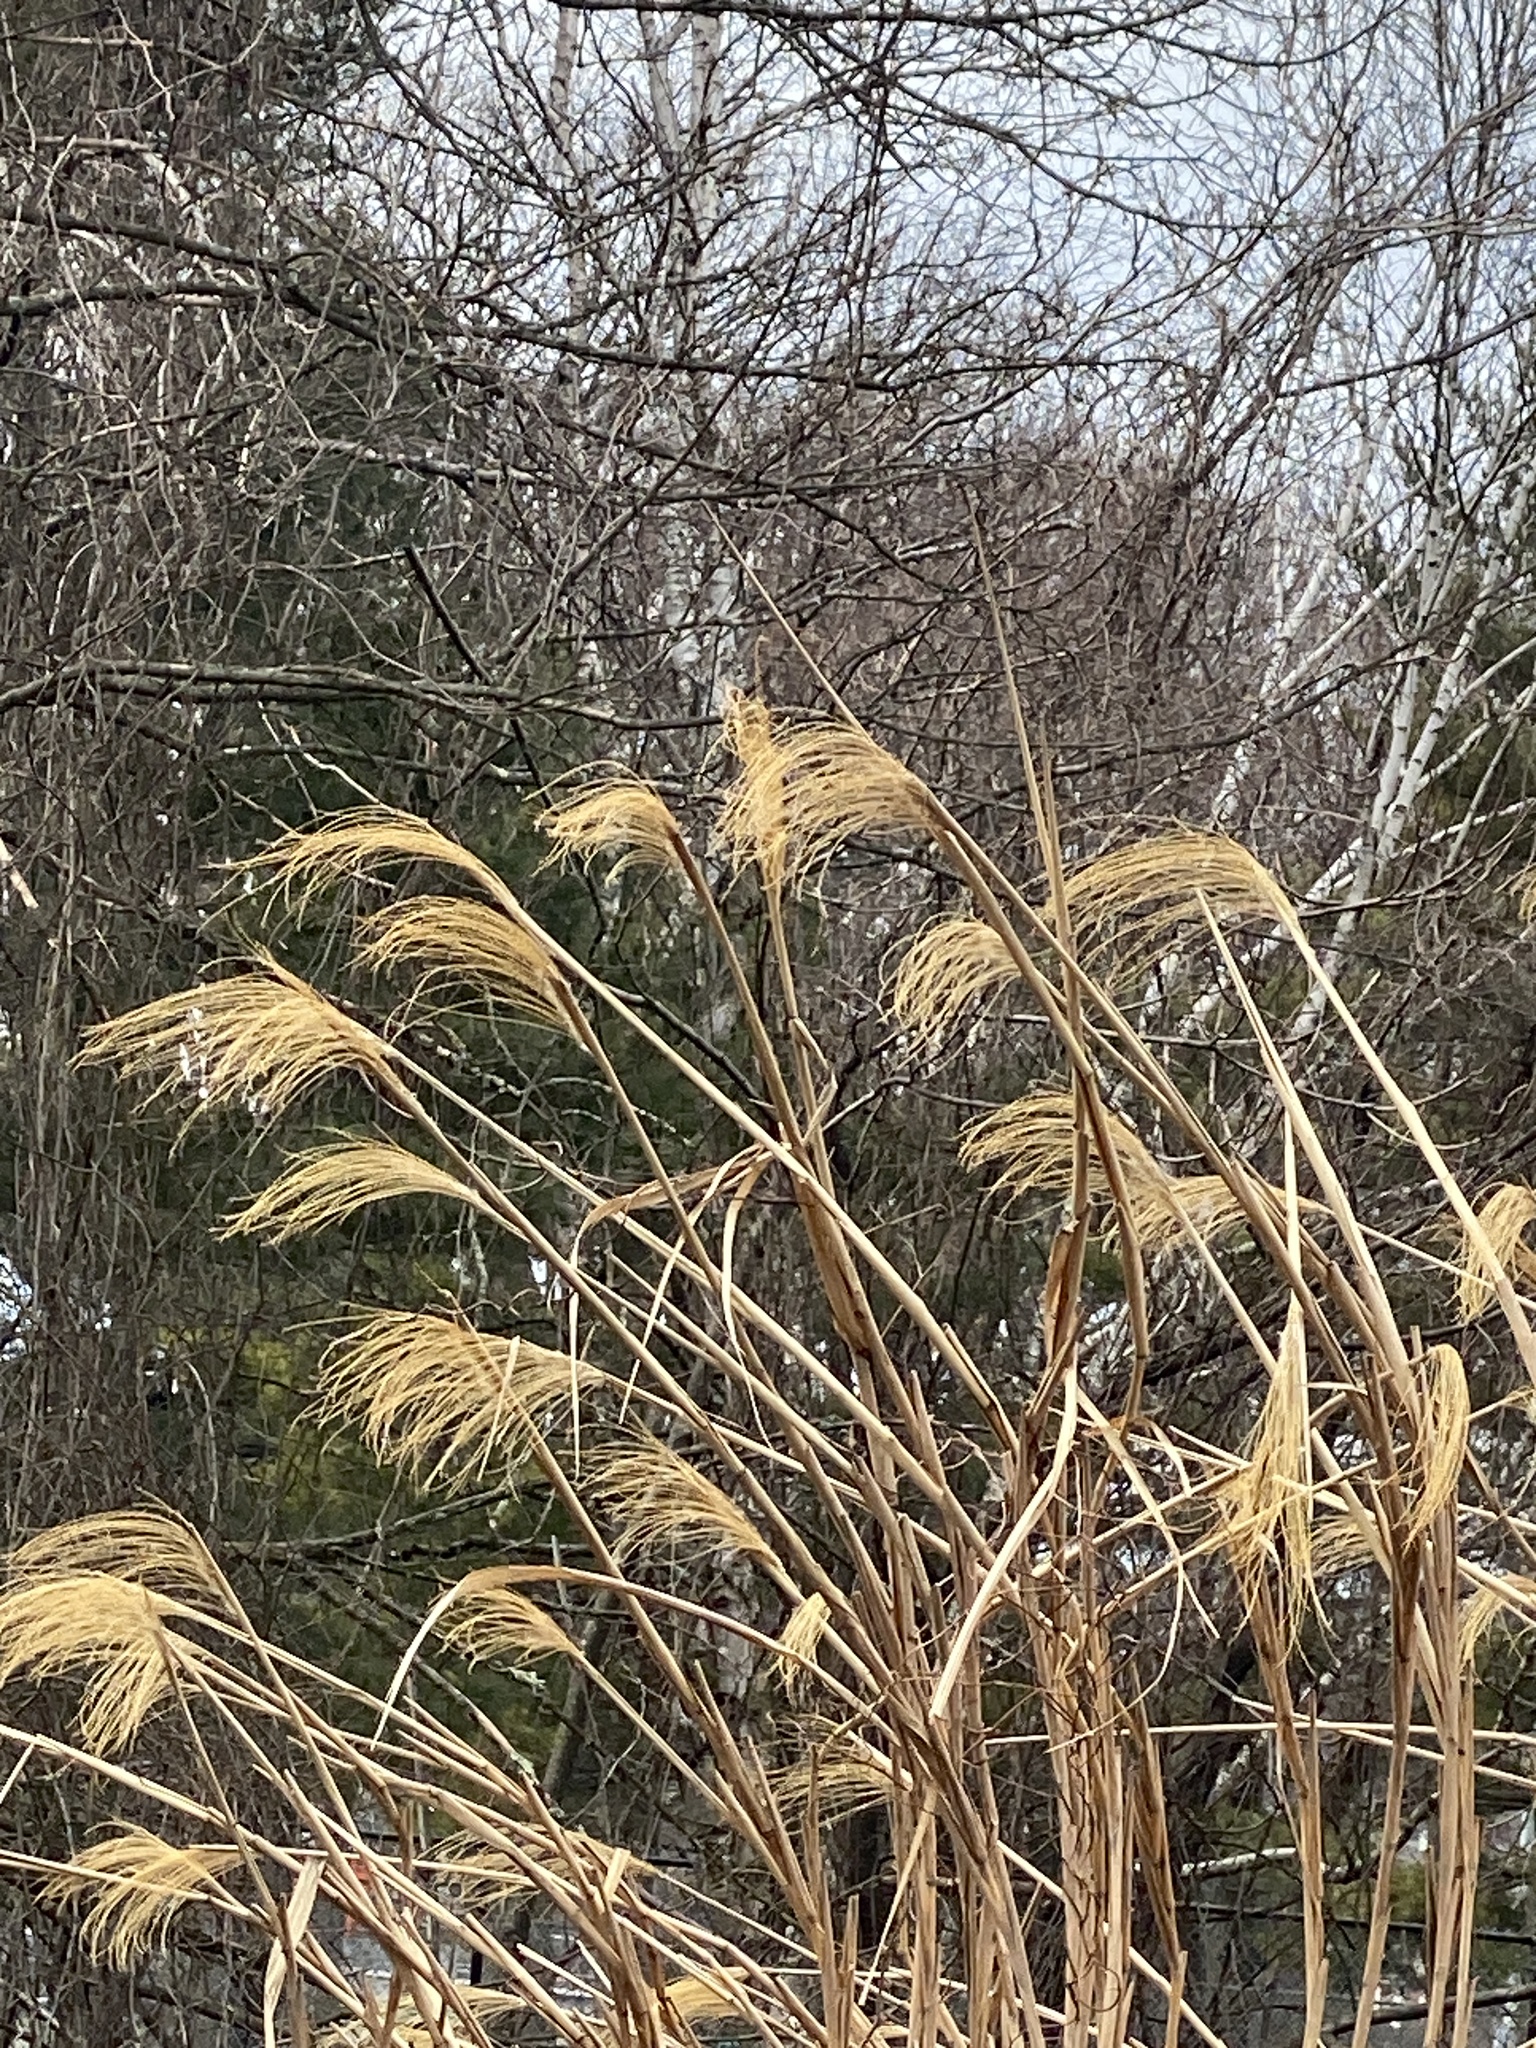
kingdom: Plantae
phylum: Tracheophyta
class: Liliopsida
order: Poales
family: Poaceae
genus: Miscanthus
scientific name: Miscanthus sinensis
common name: Chinese silvergrass
